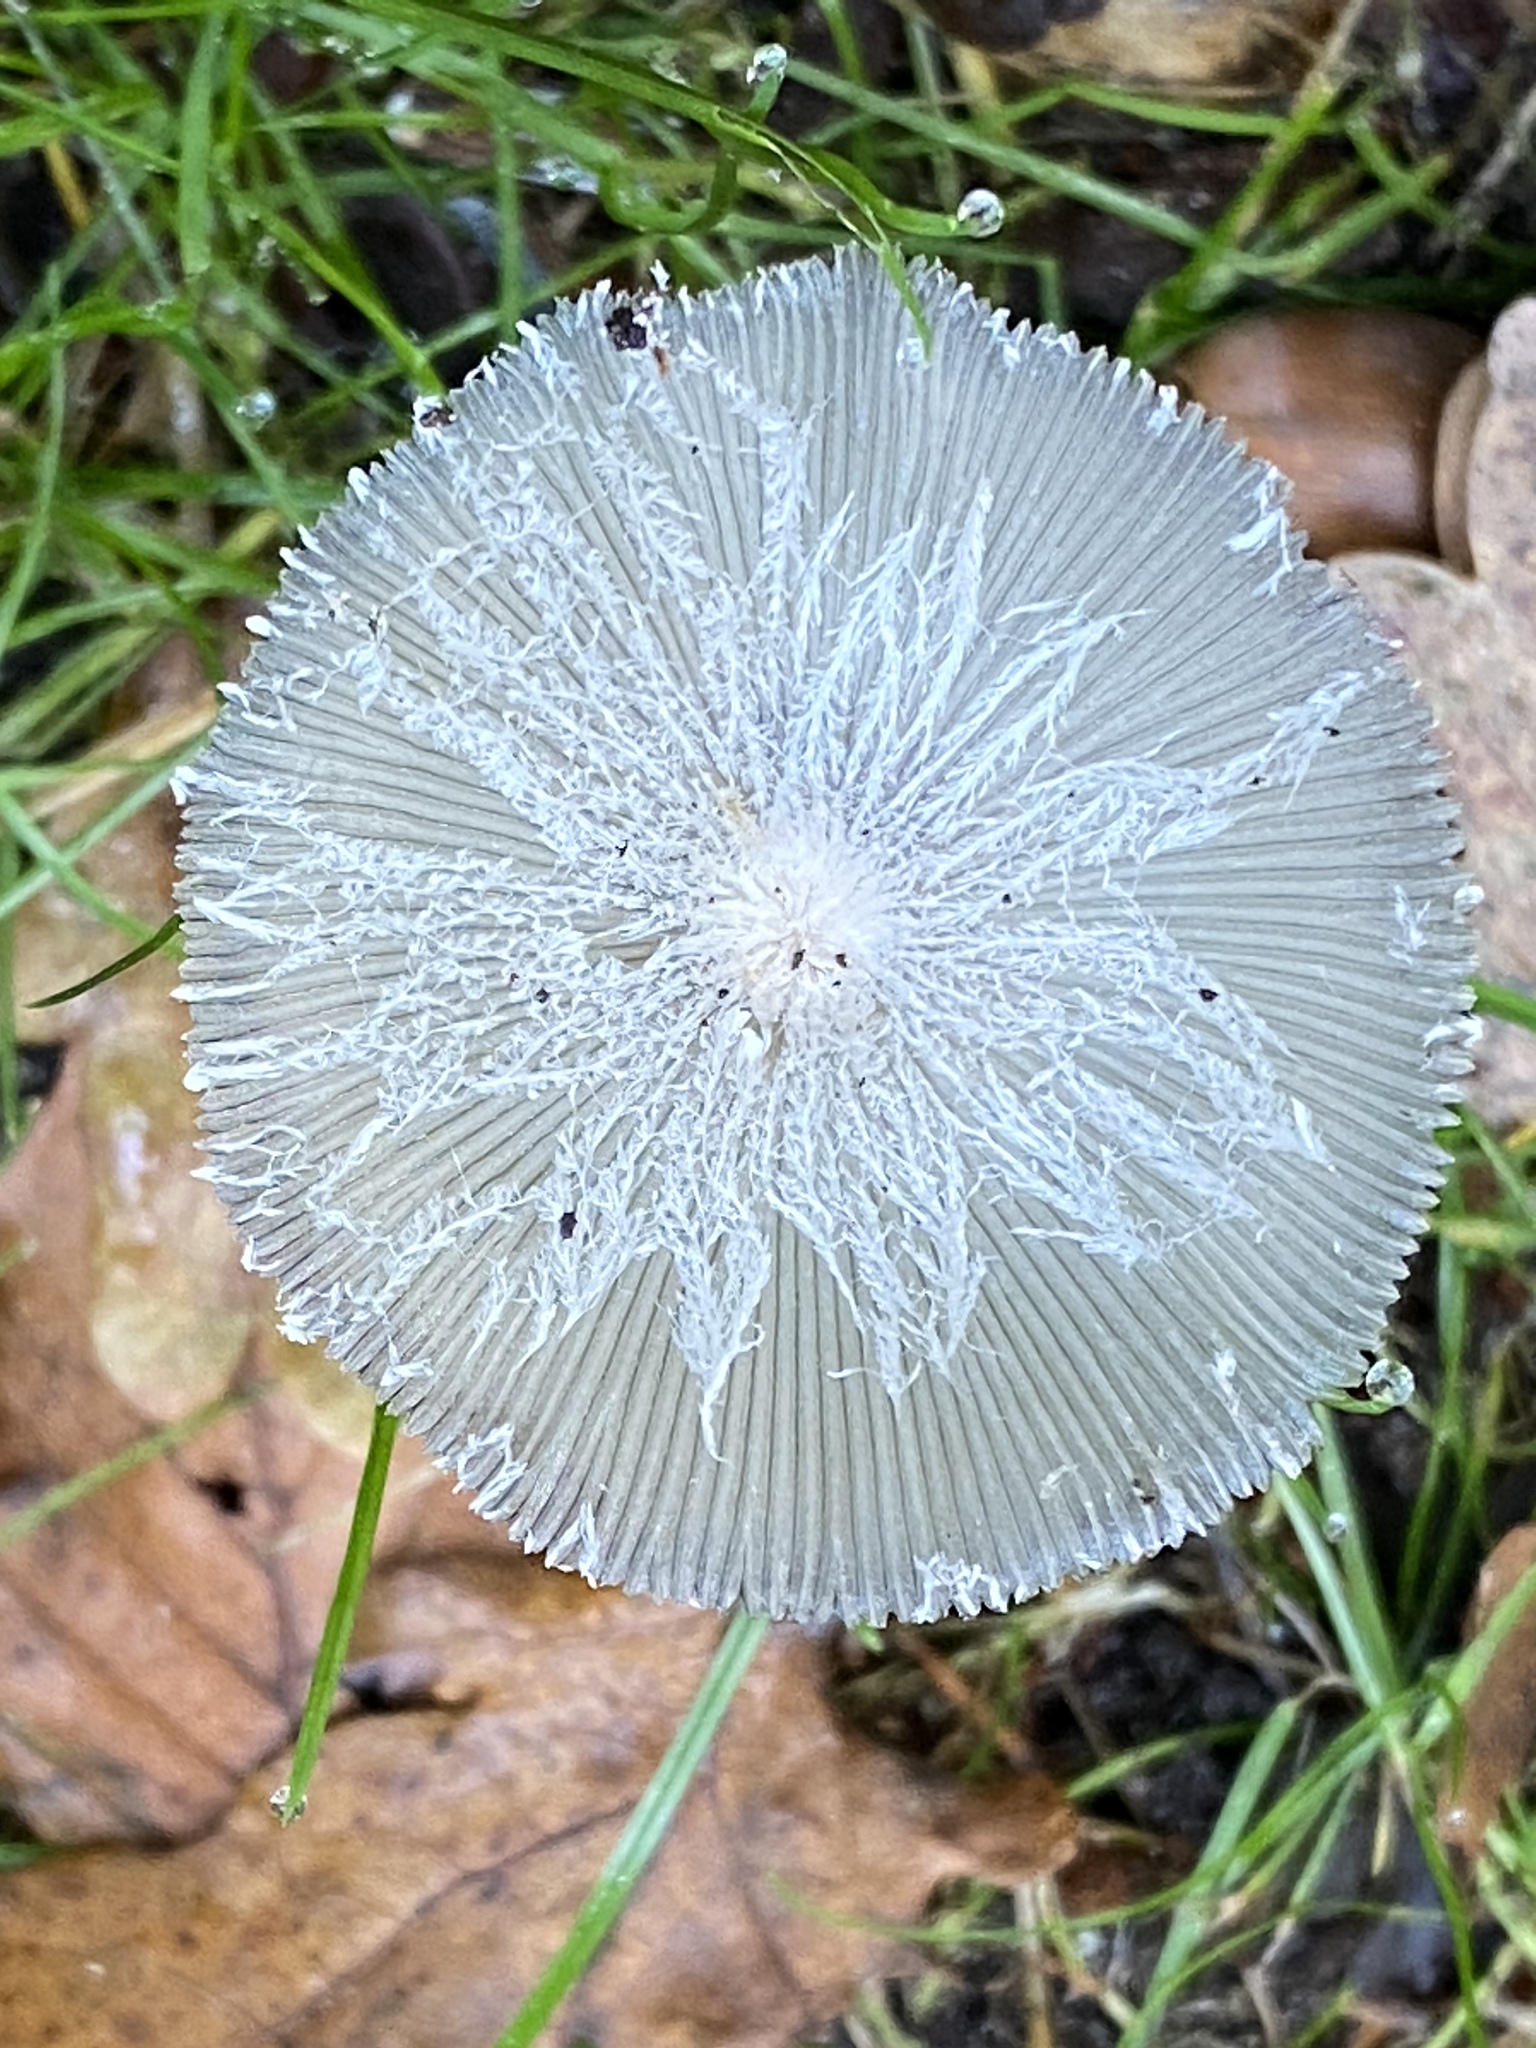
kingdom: Fungi
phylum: Basidiomycota
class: Agaricomycetes
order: Agaricales
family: Psathyrellaceae
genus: Coprinopsis
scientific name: Coprinopsis lagopus
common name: Hare'sfoot inkcap
